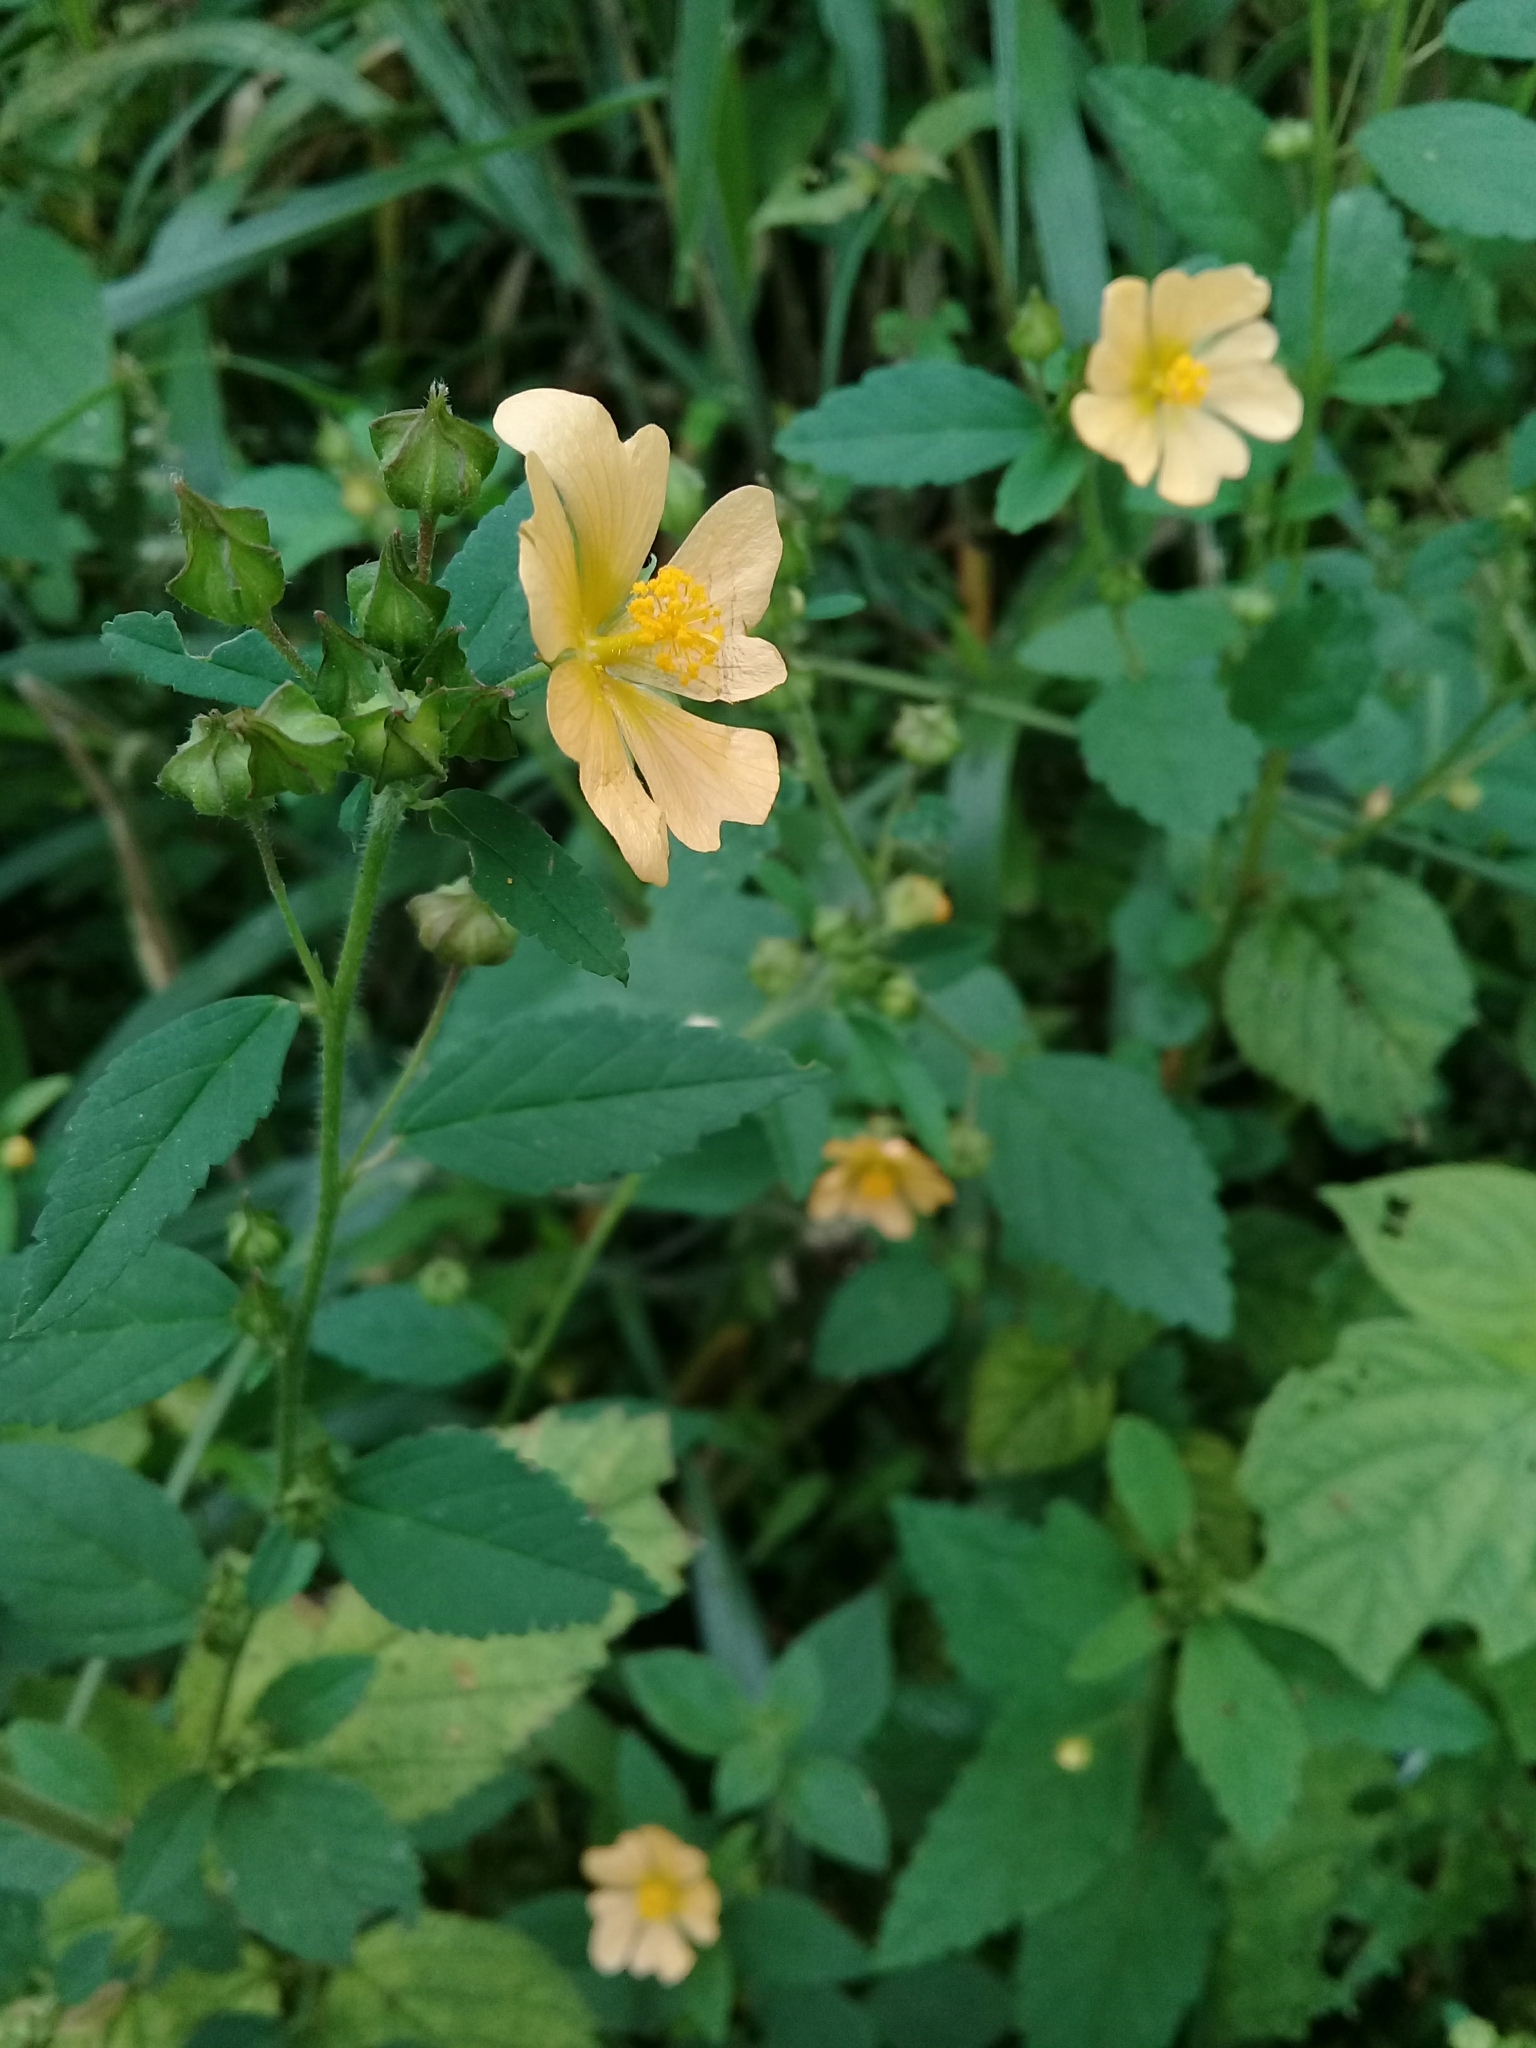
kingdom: Plantae
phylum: Tracheophyta
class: Magnoliopsida
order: Malvales
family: Malvaceae
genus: Sida
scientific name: Sida haenkeana
